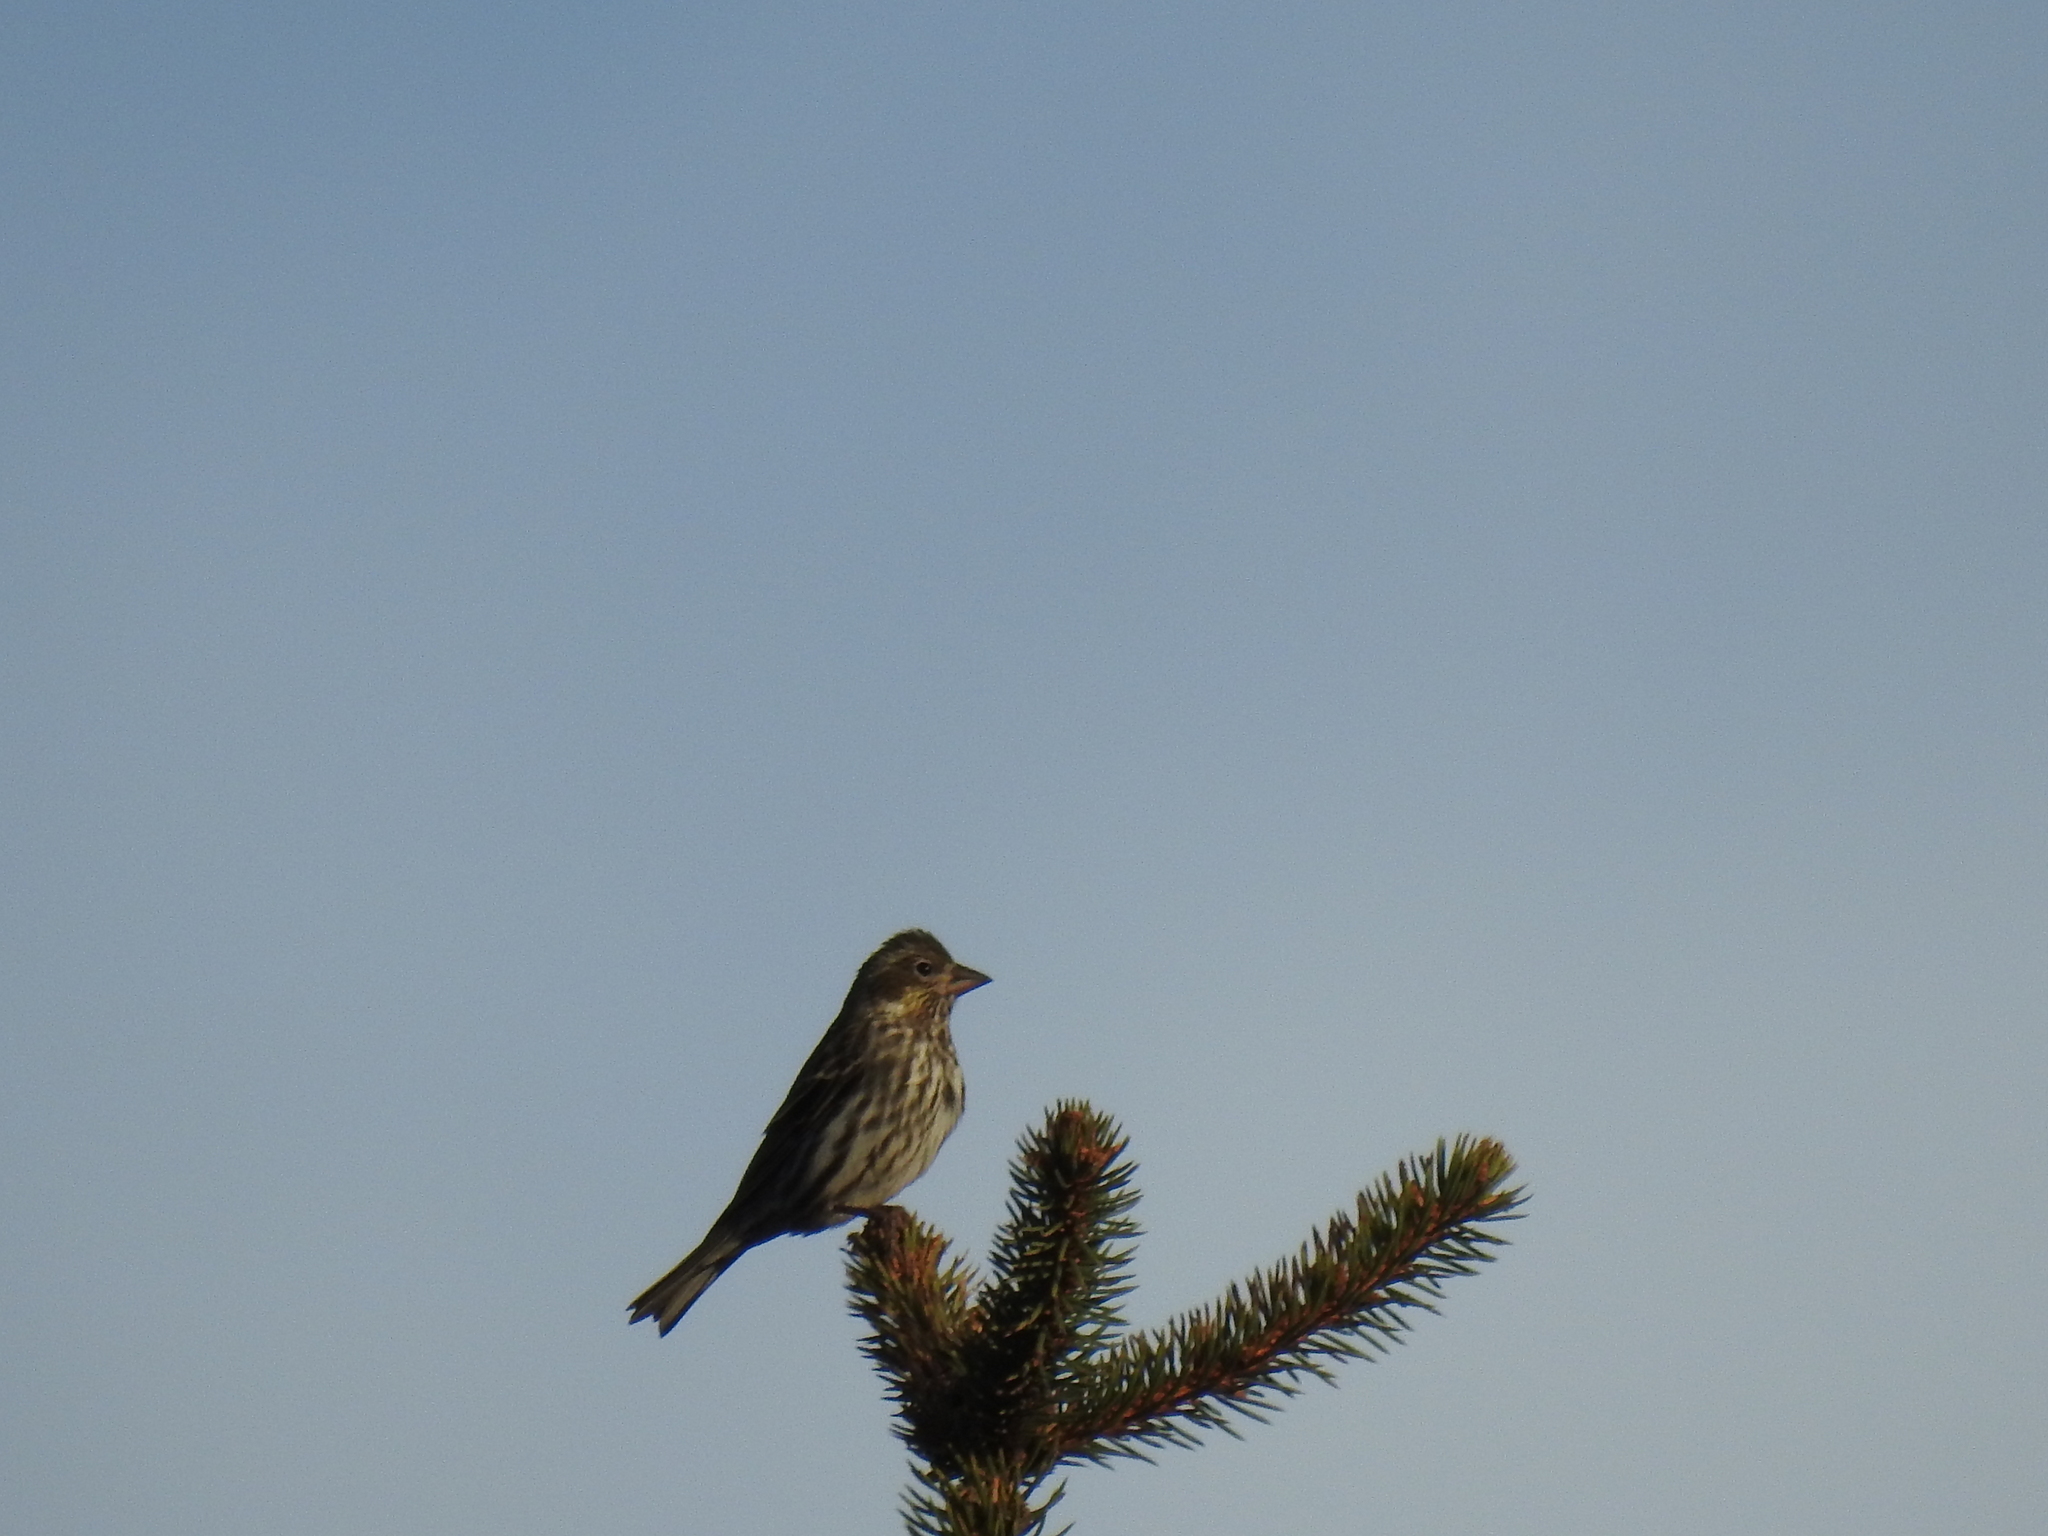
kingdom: Animalia
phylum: Chordata
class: Aves
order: Passeriformes
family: Fringillidae
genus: Haemorhous
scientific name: Haemorhous cassinii
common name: Cassin's finch
